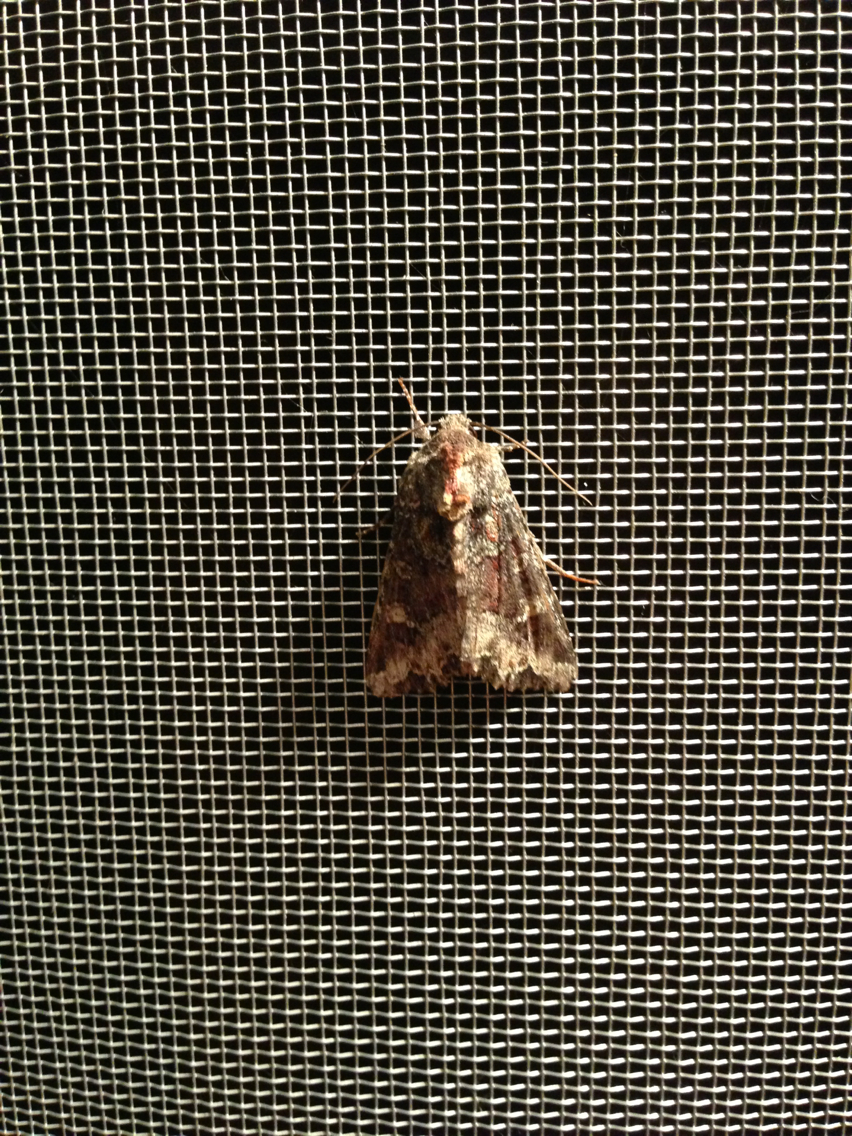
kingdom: Animalia
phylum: Arthropoda
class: Insecta
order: Lepidoptera
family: Noctuidae
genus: Apamea
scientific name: Apamea amputatrix
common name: Yellow-headed cutworm moth
